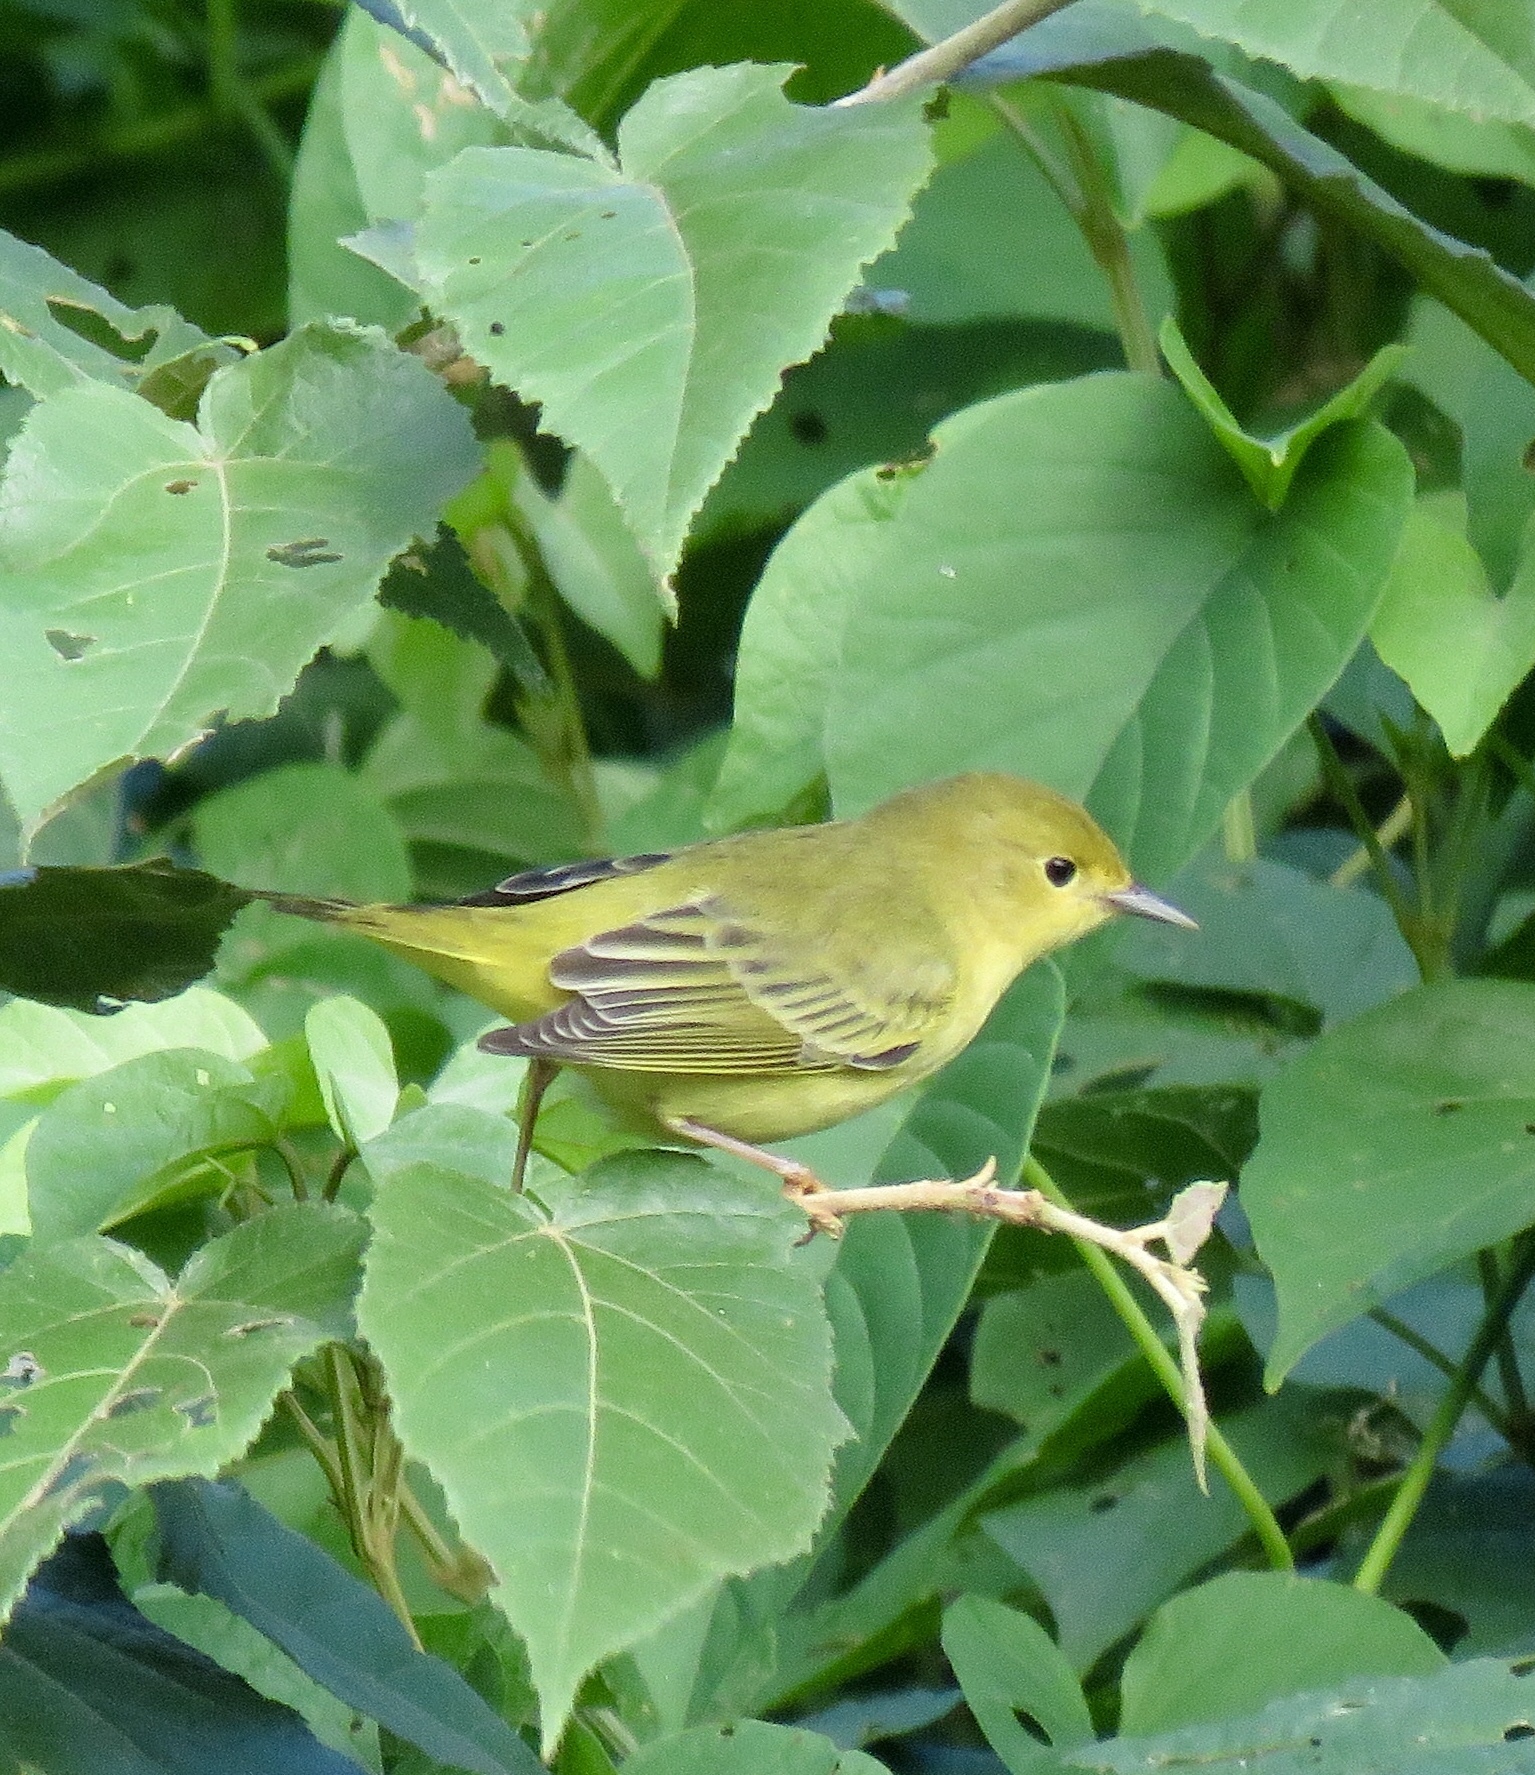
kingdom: Animalia
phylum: Chordata
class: Aves
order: Passeriformes
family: Parulidae
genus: Setophaga
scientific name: Setophaga petechia
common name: Yellow warbler
